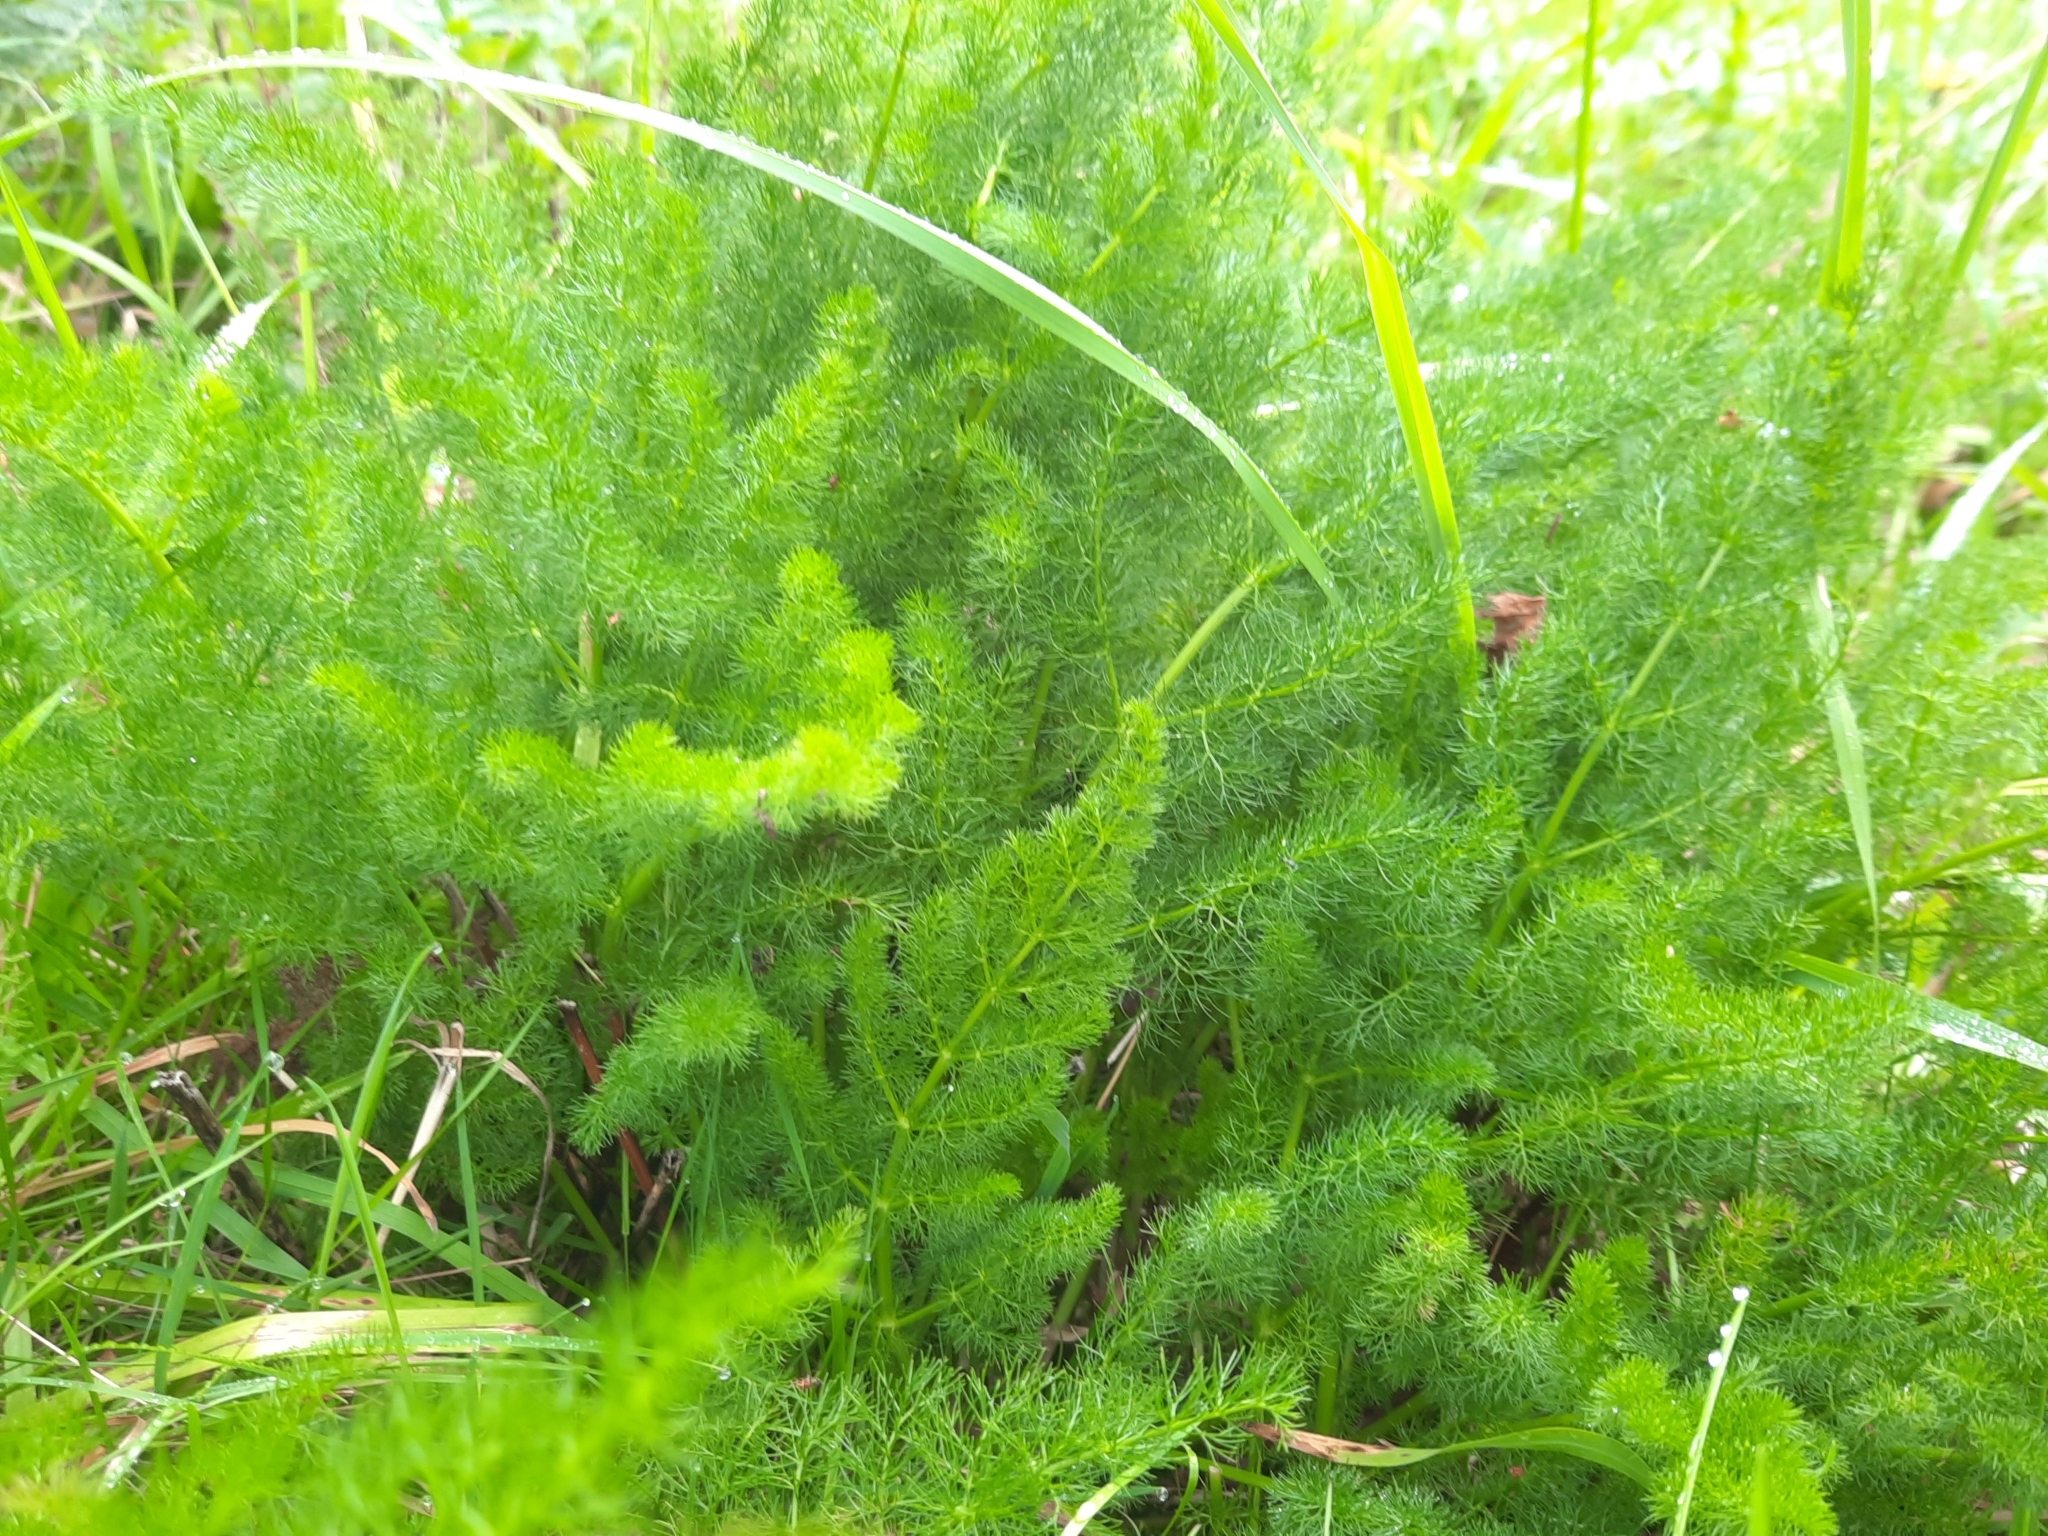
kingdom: Plantae
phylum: Tracheophyta
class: Magnoliopsida
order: Apiales
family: Apiaceae
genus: Meum
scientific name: Meum athamanticum
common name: Spignel
